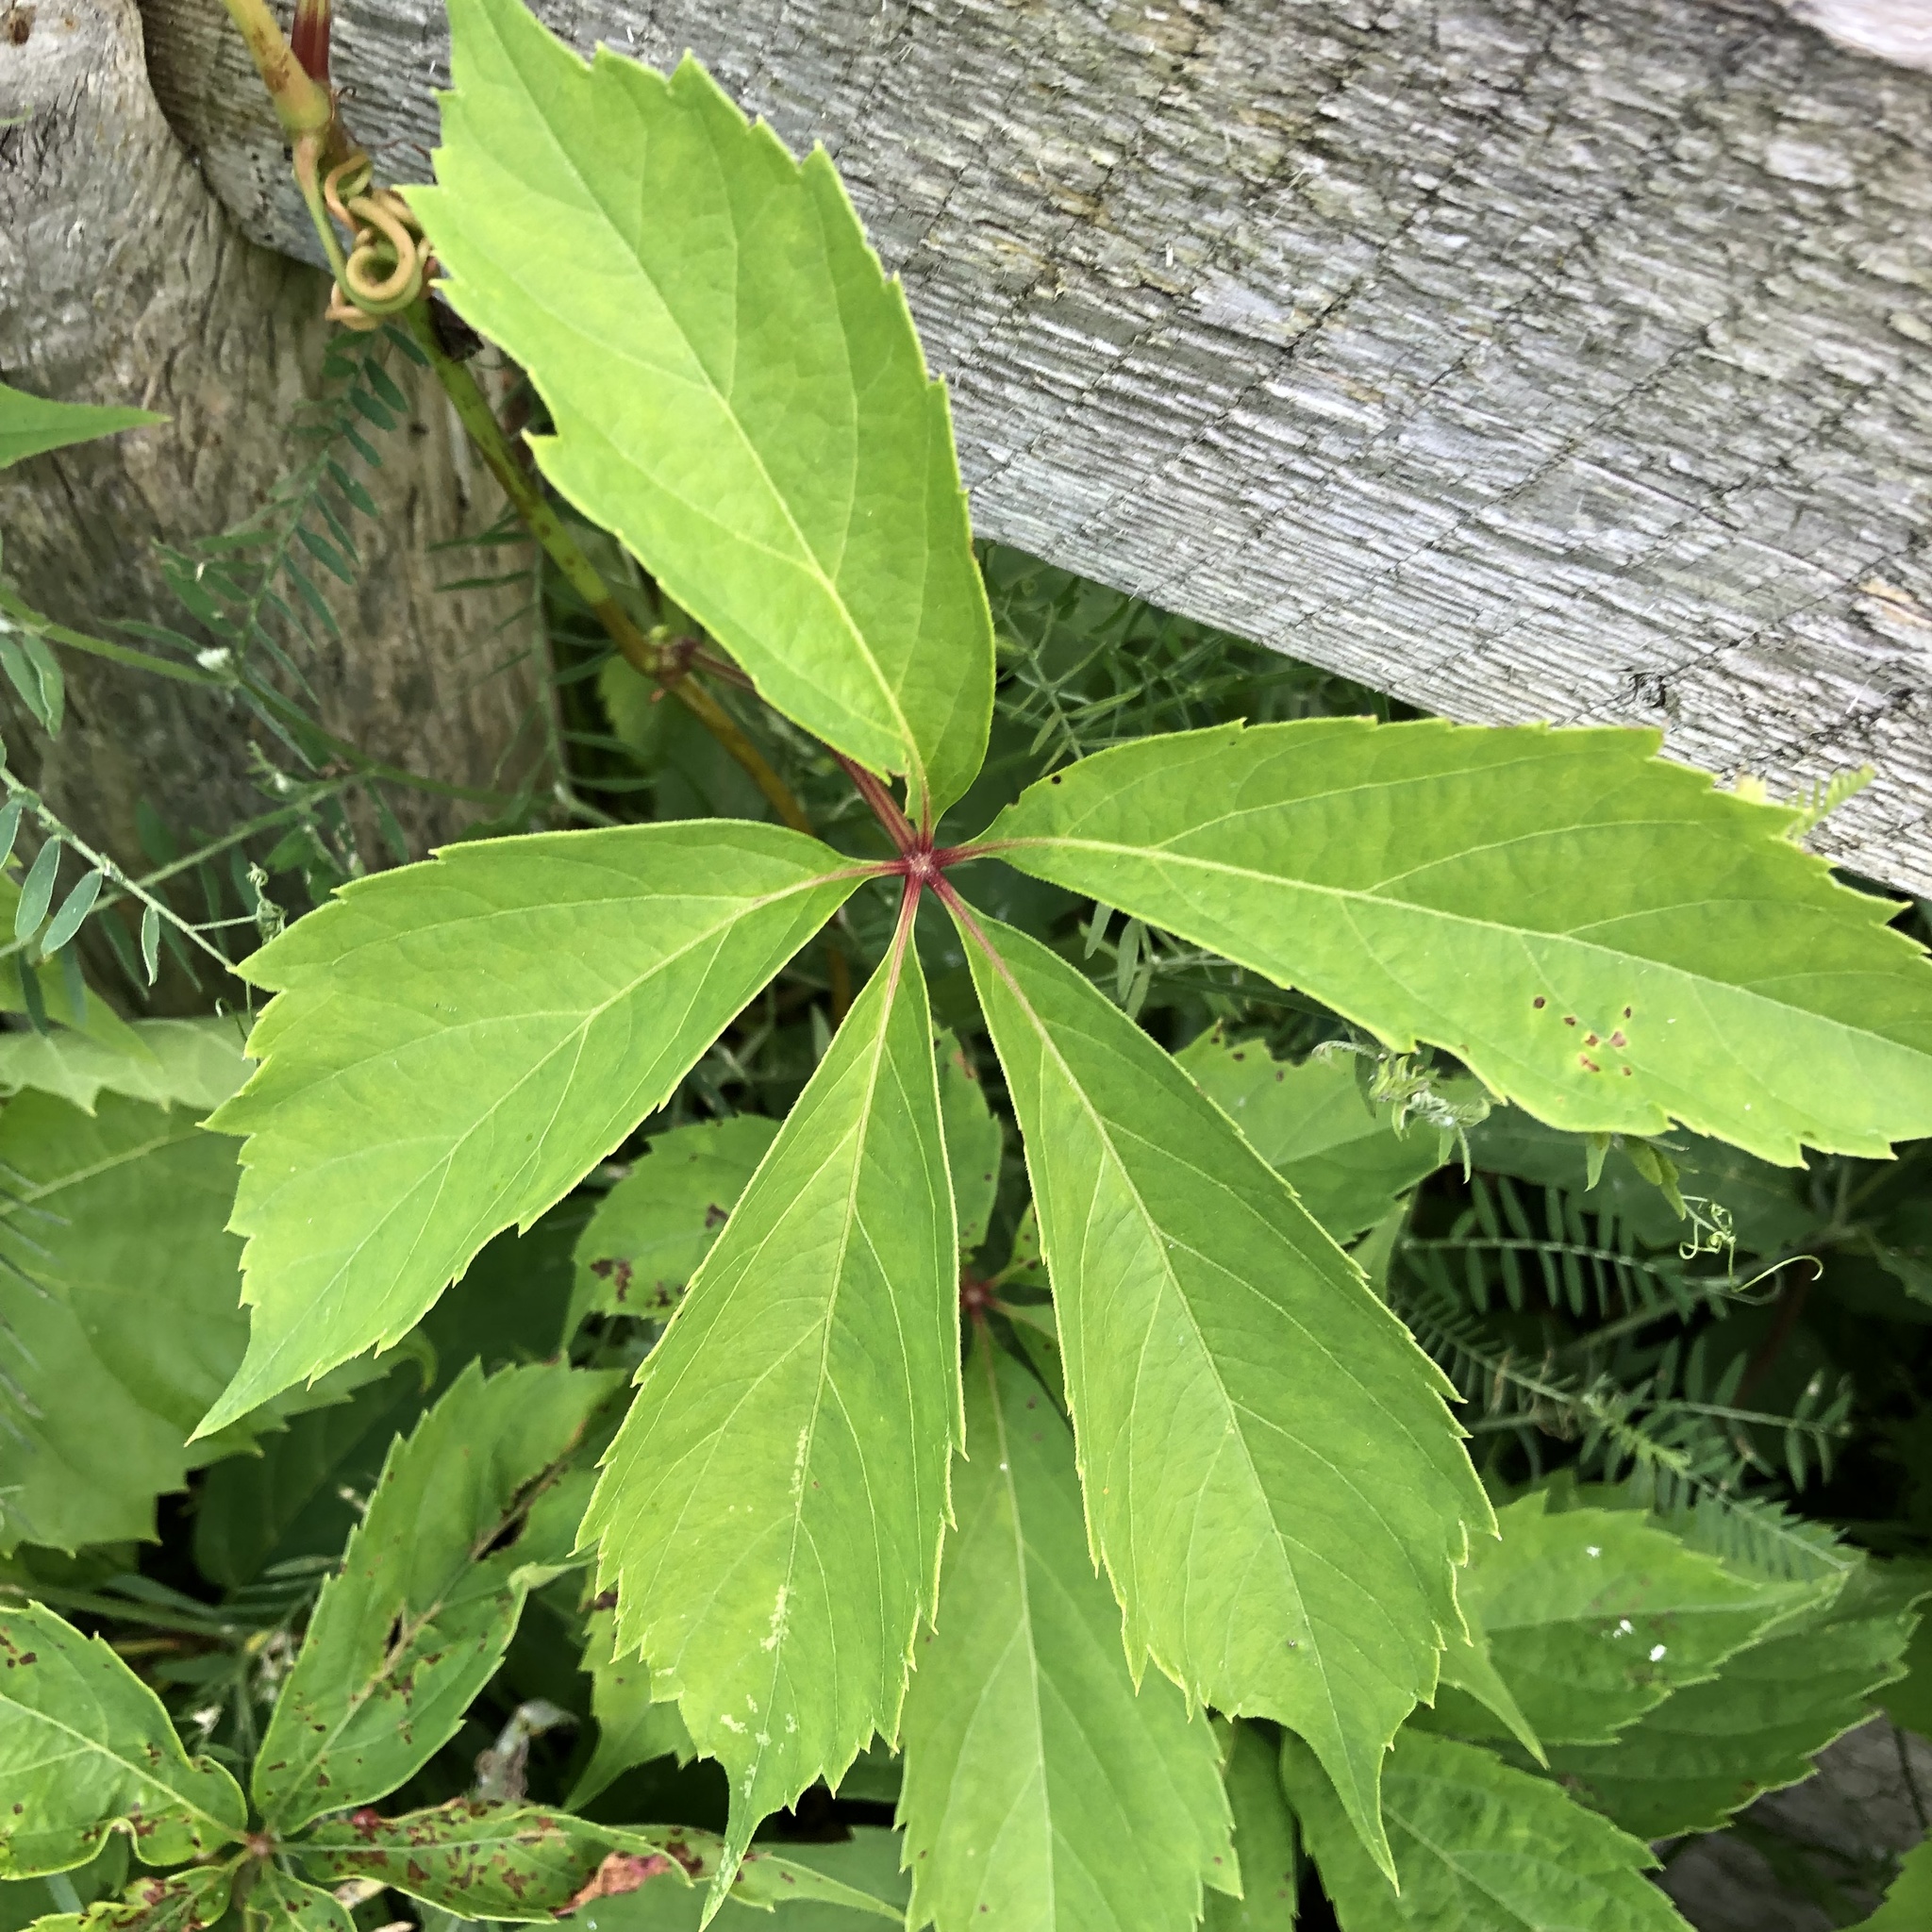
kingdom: Plantae
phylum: Tracheophyta
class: Magnoliopsida
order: Vitales
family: Vitaceae
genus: Parthenocissus
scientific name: Parthenocissus quinquefolia
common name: Virginia-creeper
